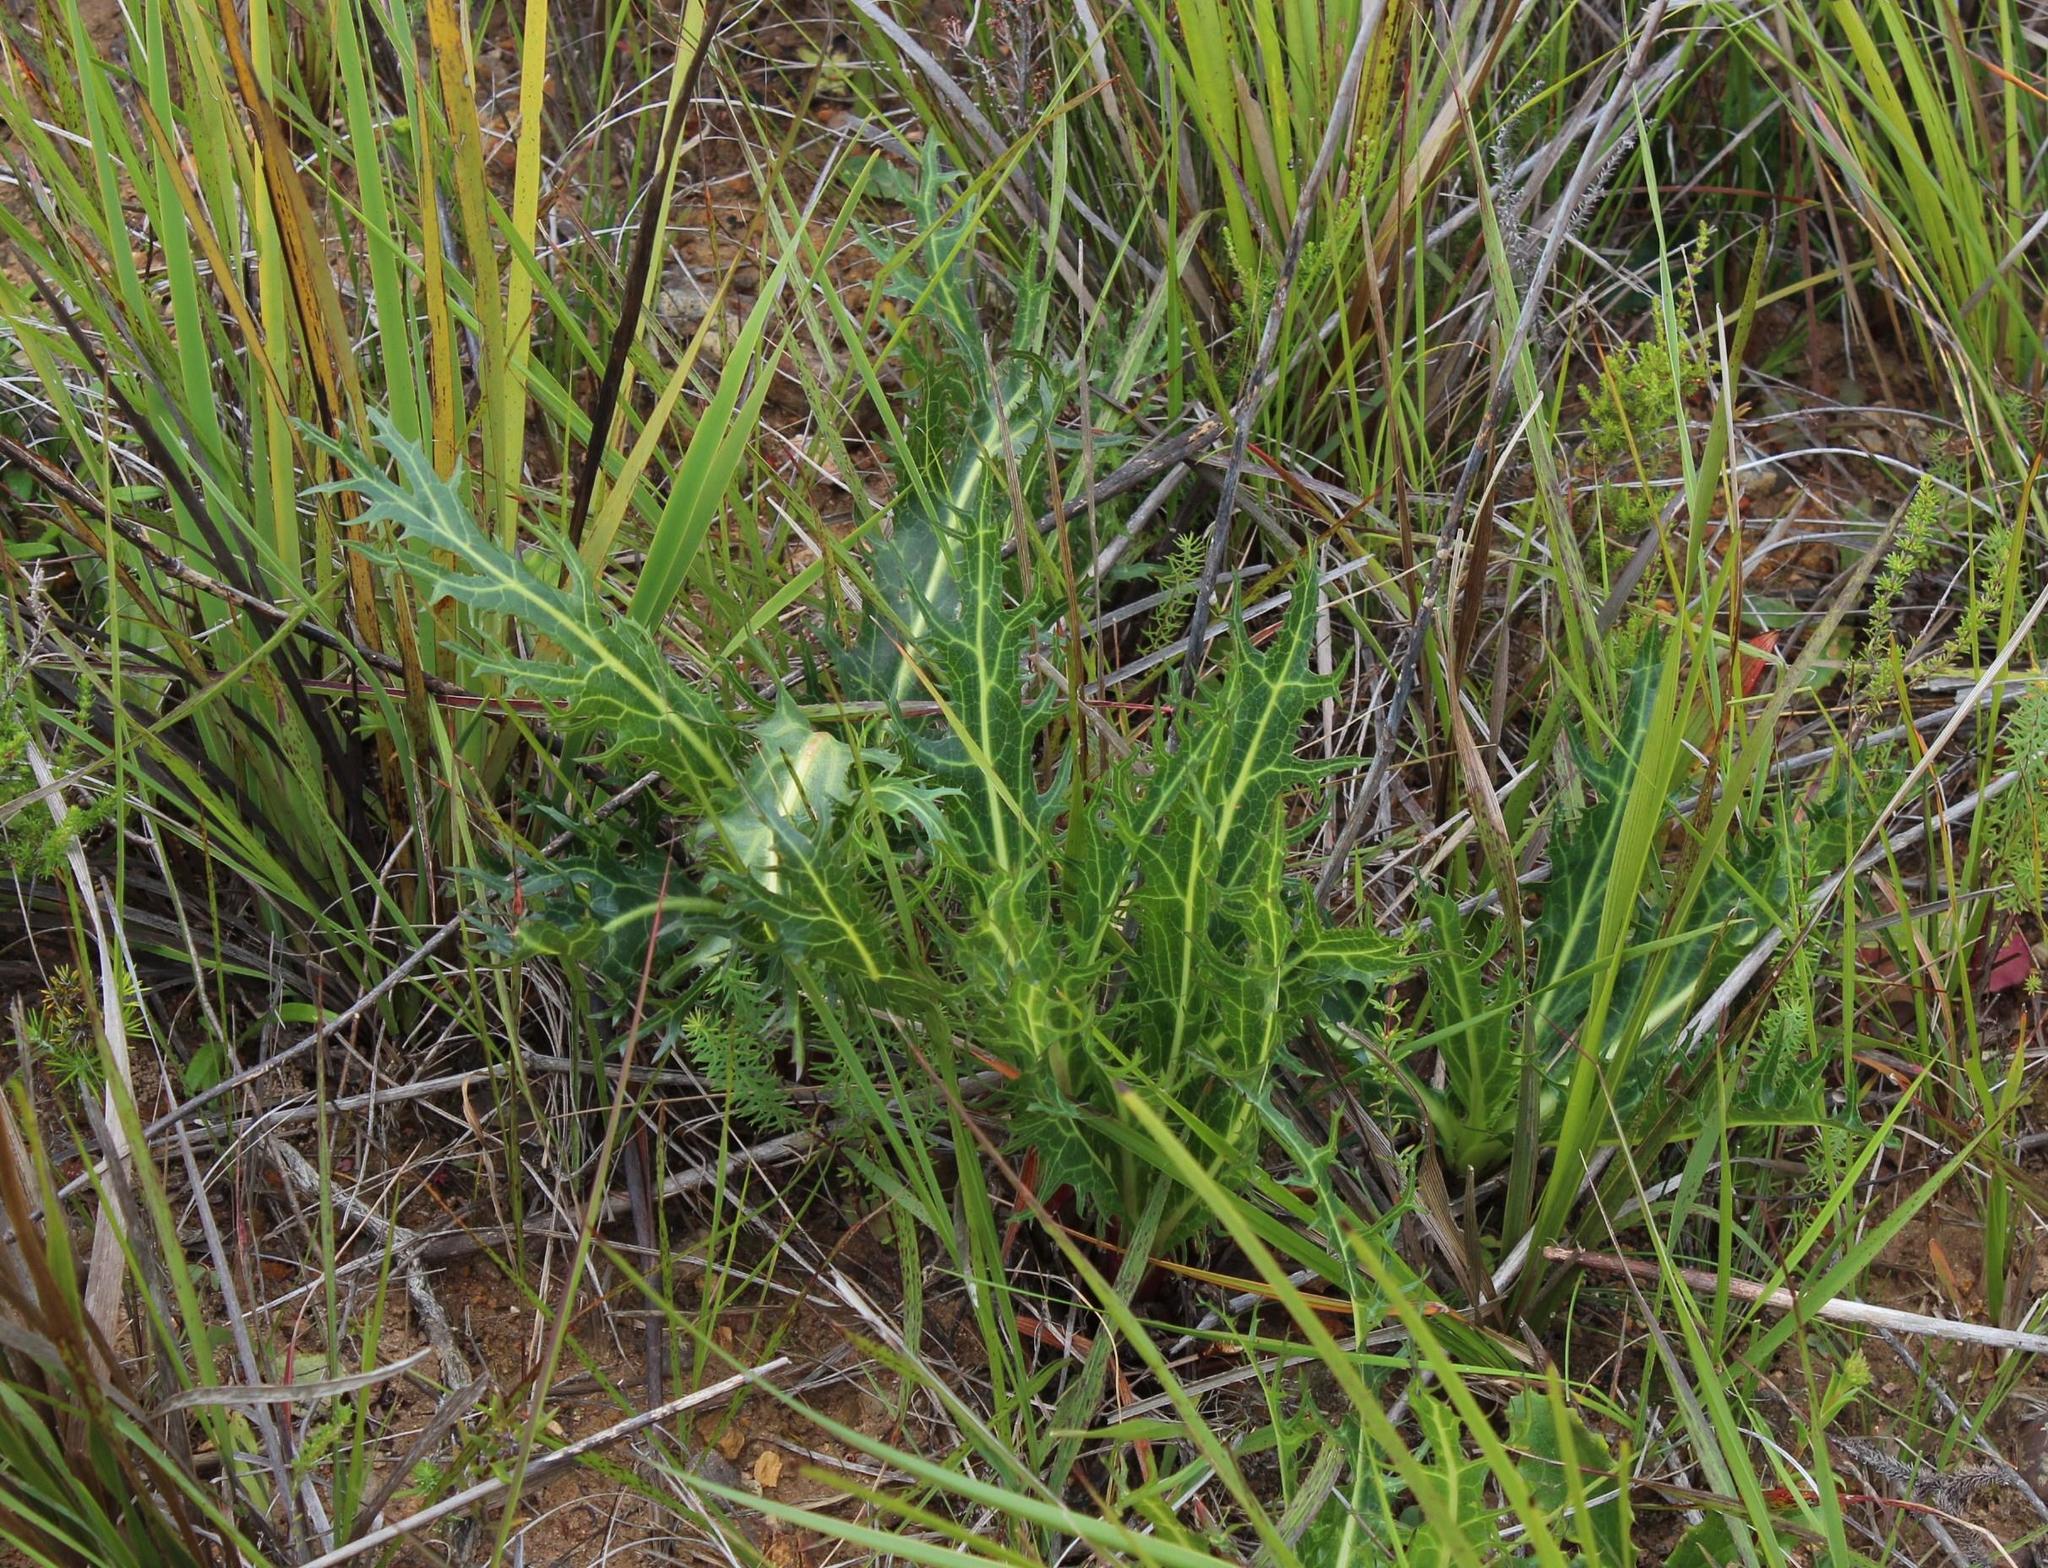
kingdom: Plantae
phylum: Tracheophyta
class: Magnoliopsida
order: Apiales
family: Apiaceae
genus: Lichtensteinia
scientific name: Lichtensteinia lacera
